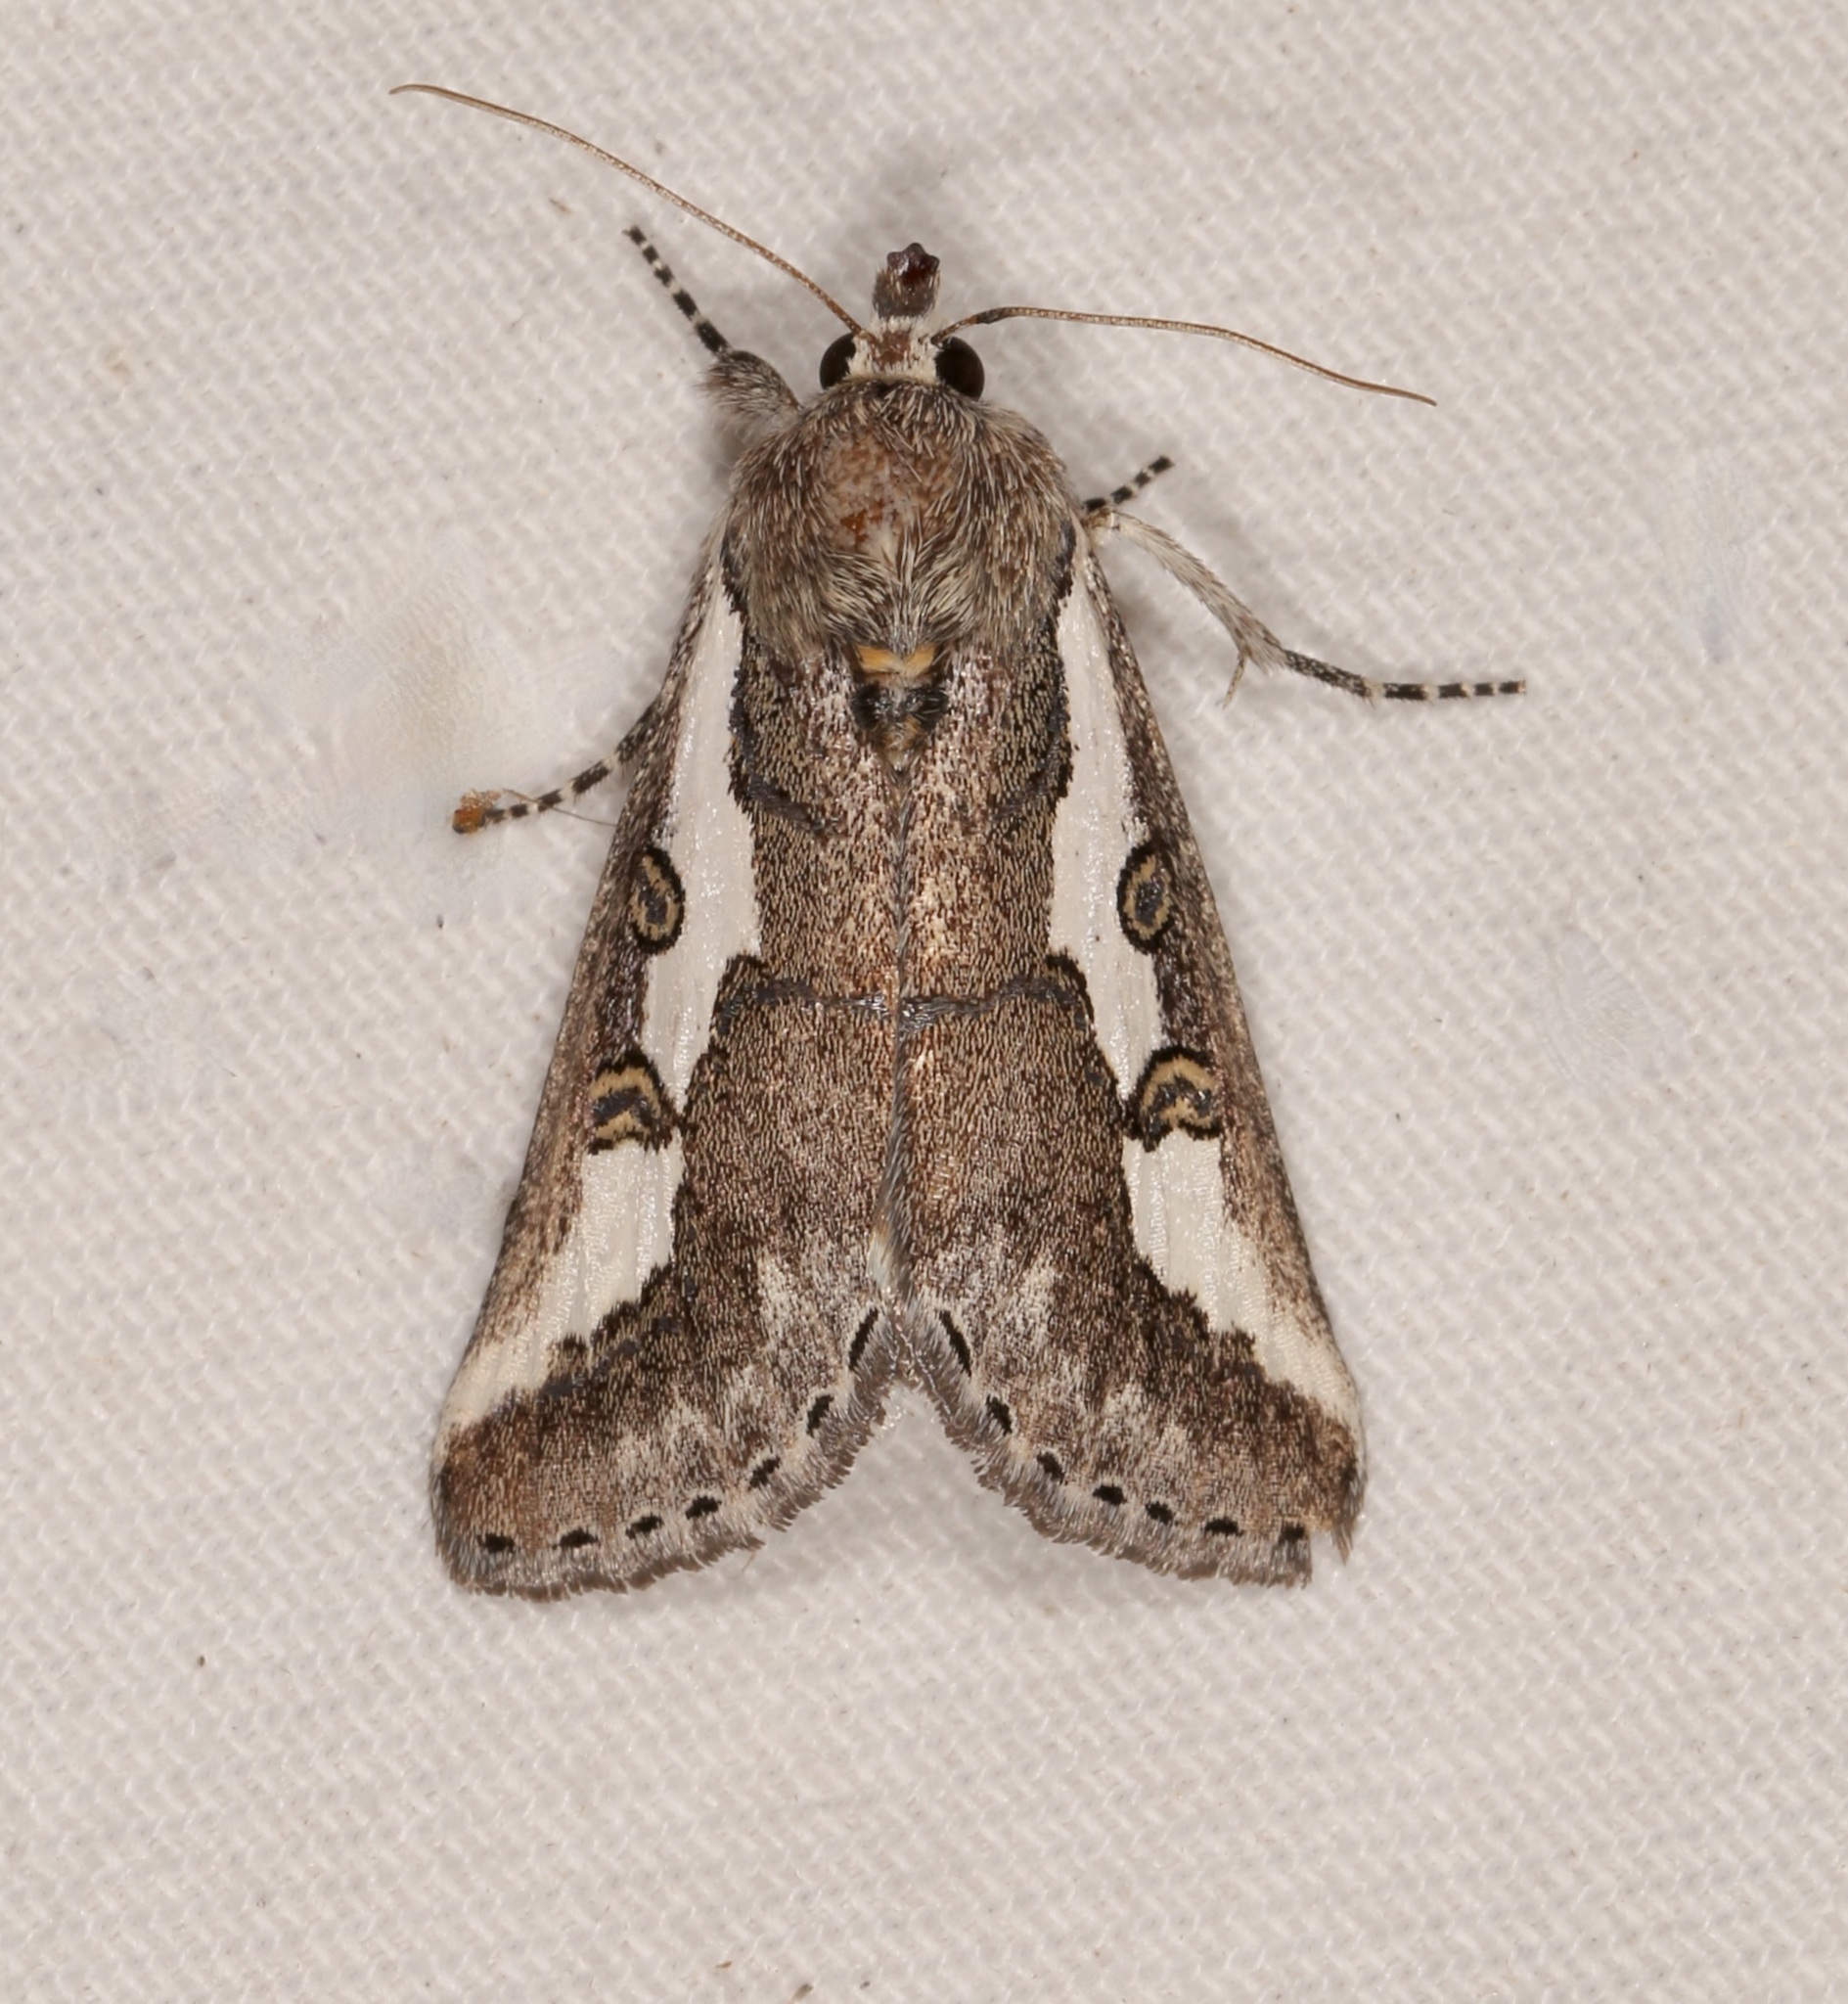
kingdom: Animalia
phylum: Arthropoda
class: Insecta
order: Lepidoptera
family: Noctuidae
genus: Euscirrhopterus
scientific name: Euscirrhopterus gloveri
